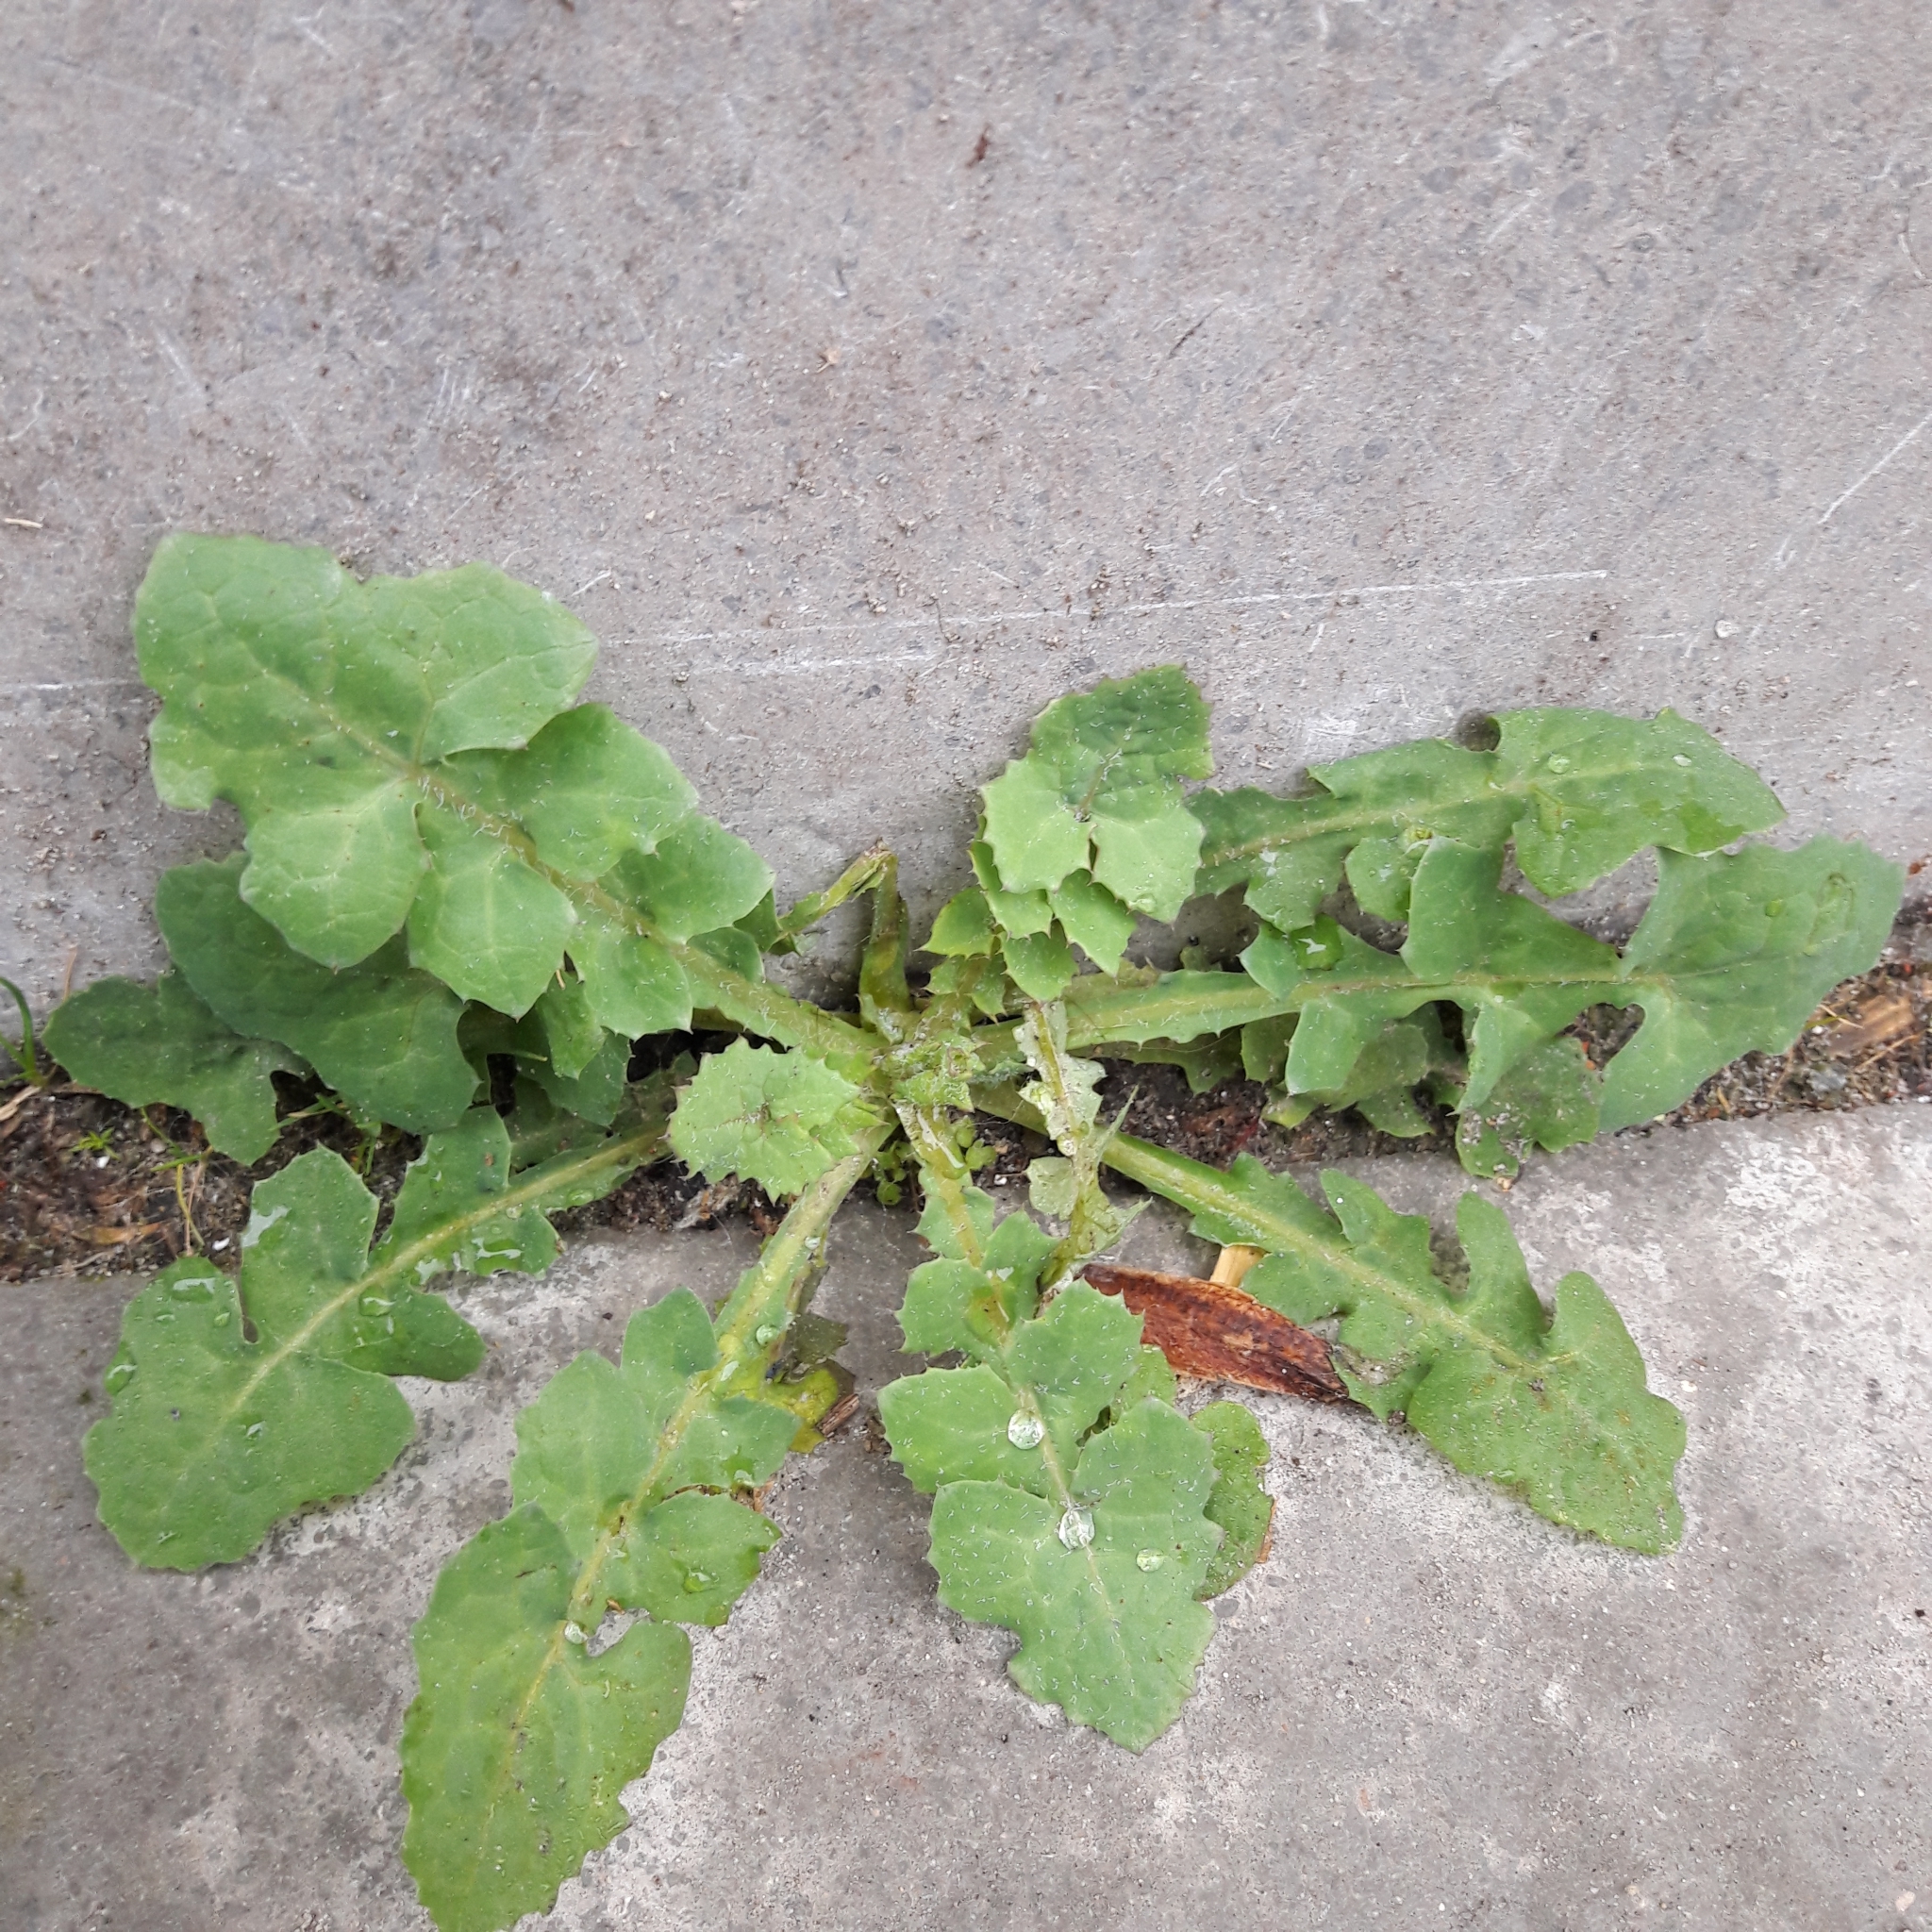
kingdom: Plantae
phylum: Tracheophyta
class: Magnoliopsida
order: Asterales
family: Asteraceae
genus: Sonchus
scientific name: Sonchus oleraceus
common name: Common sowthistle
